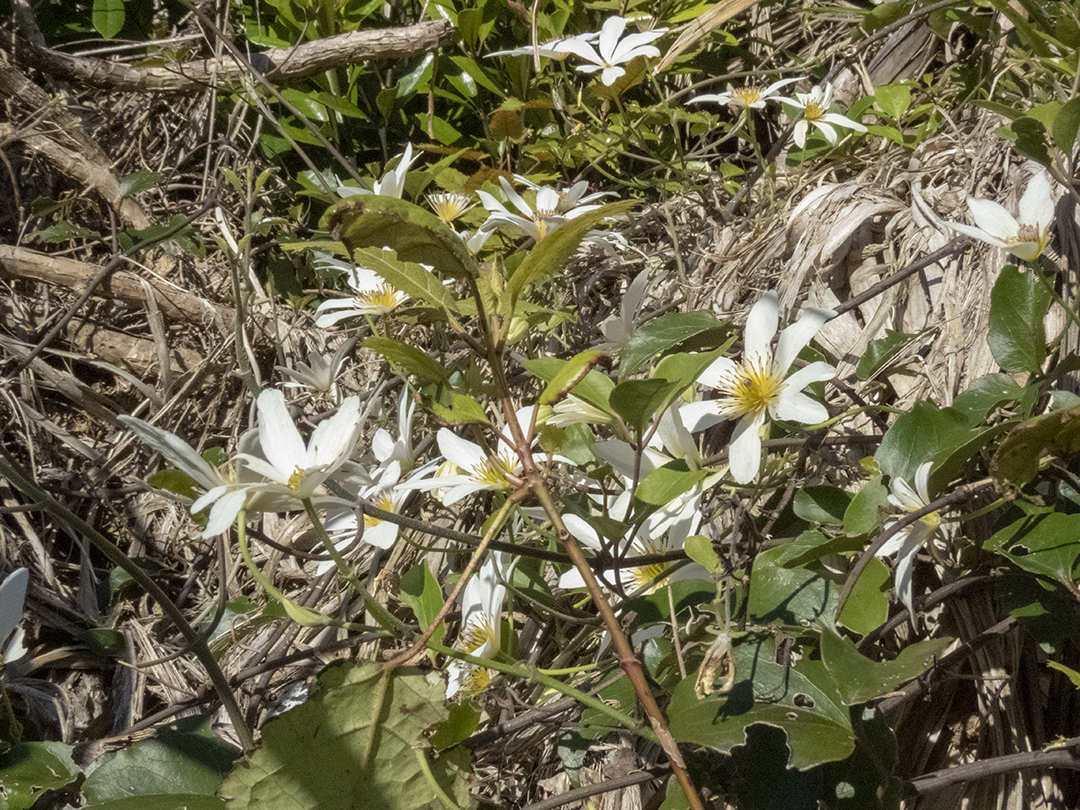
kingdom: Plantae
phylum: Tracheophyta
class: Magnoliopsida
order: Ranunculales
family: Ranunculaceae
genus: Clematis
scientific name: Clematis paniculata
